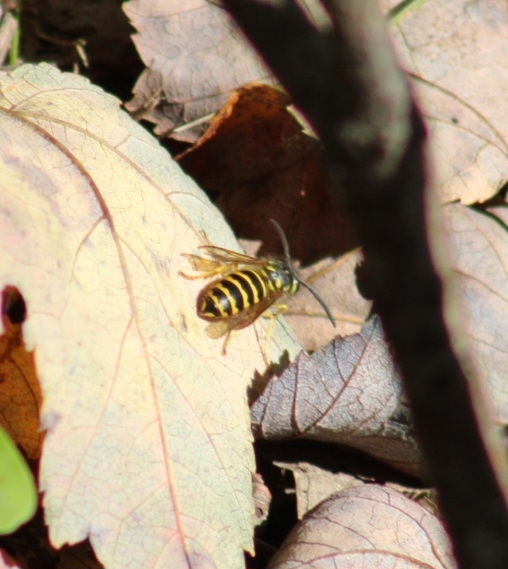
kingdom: Animalia
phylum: Arthropoda
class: Insecta
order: Hymenoptera
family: Vespidae
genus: Vespula
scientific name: Vespula maculifrons
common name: Eastern yellowjacket
